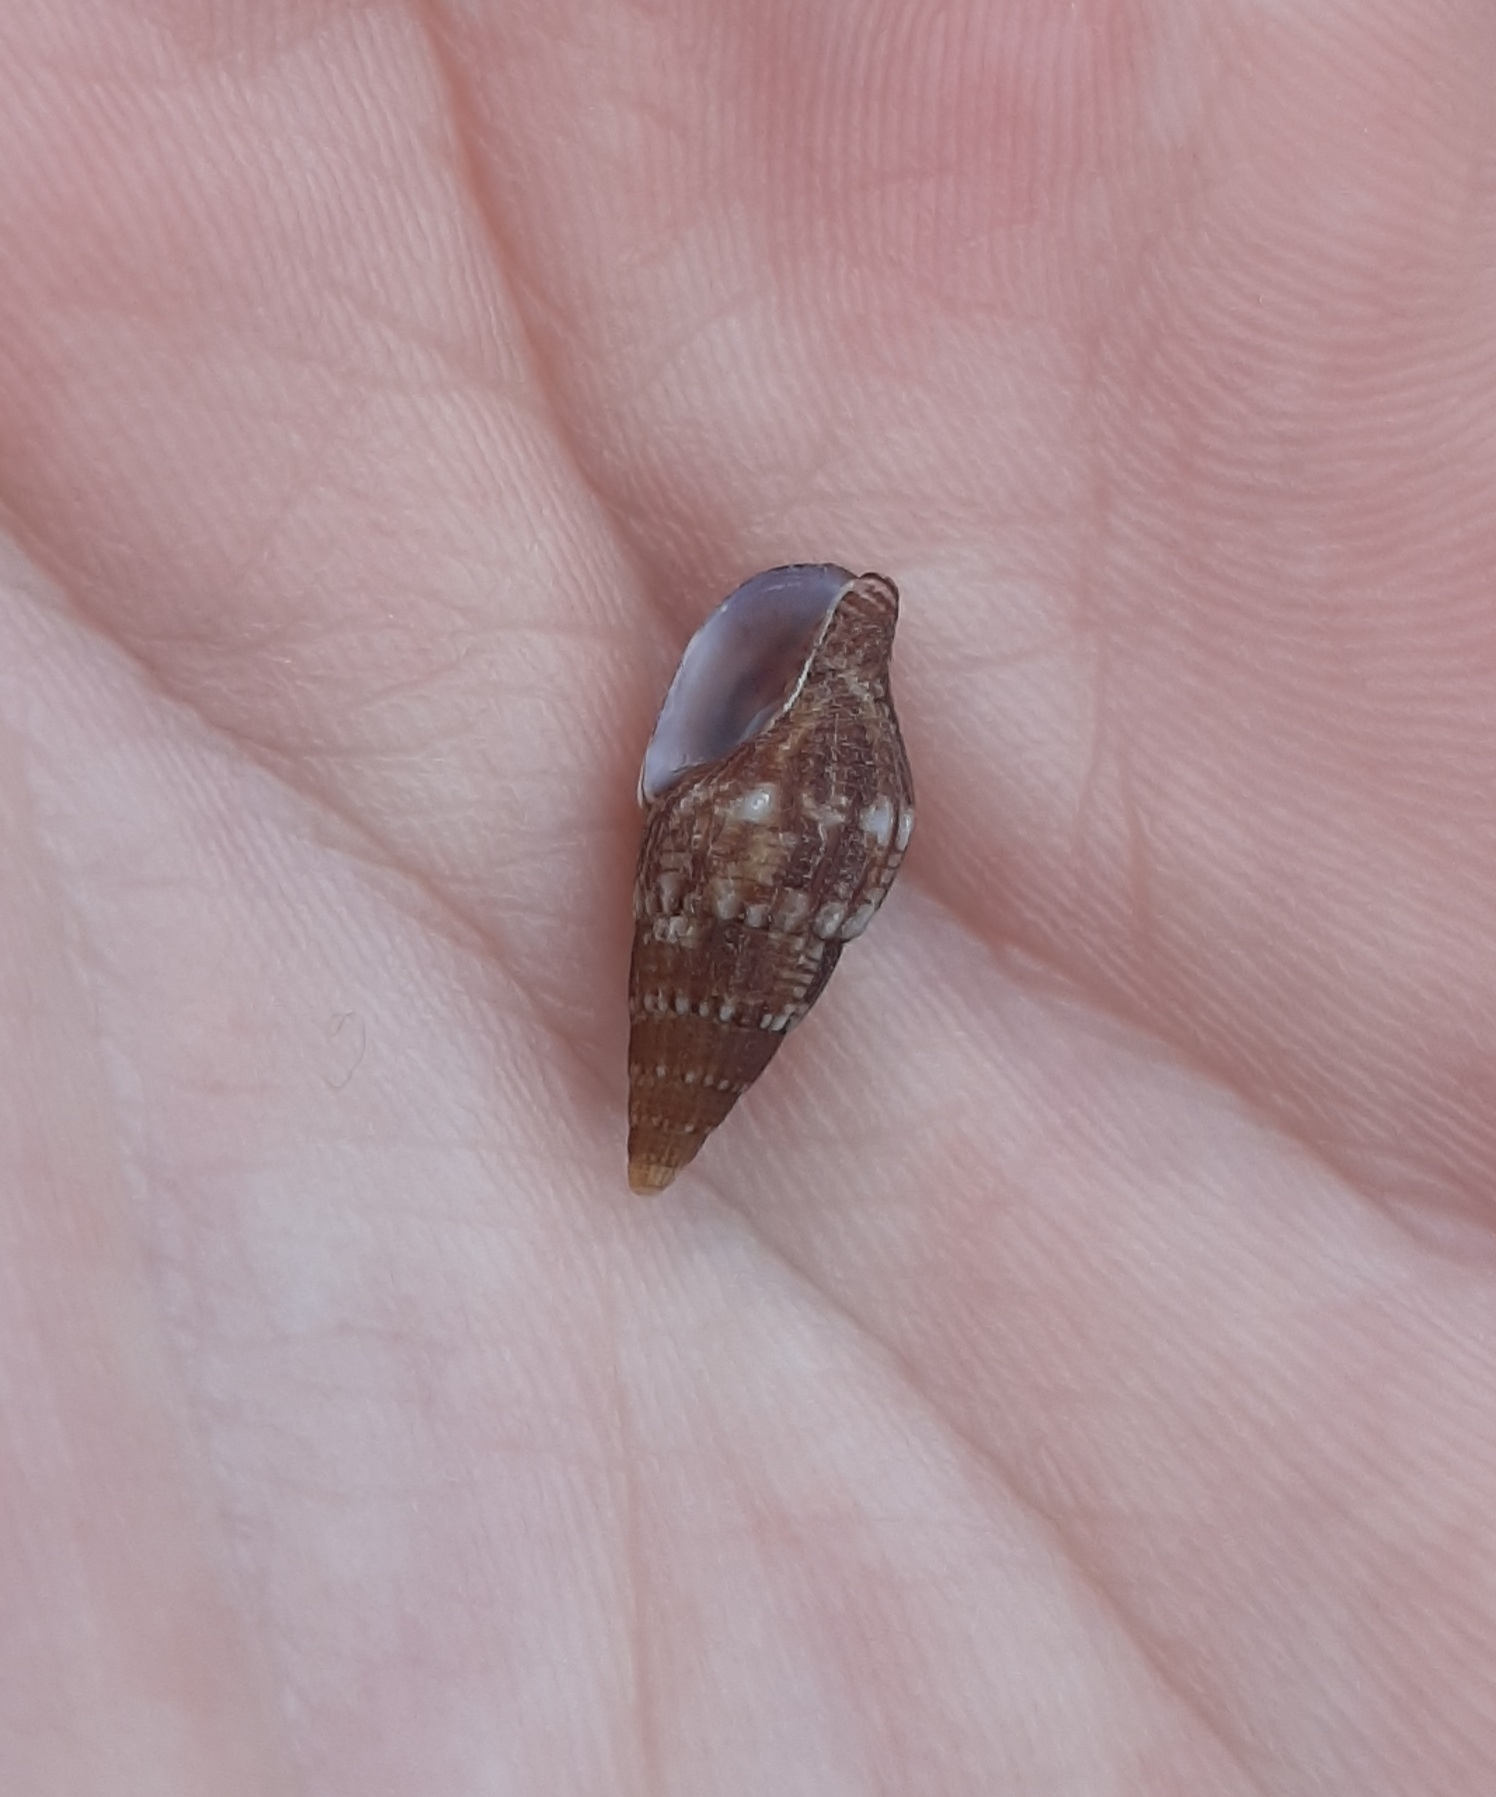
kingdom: Animalia
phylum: Mollusca
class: Gastropoda
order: Neogastropoda
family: Columbellidae
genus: Costoanachis
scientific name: Costoanachis translirata
